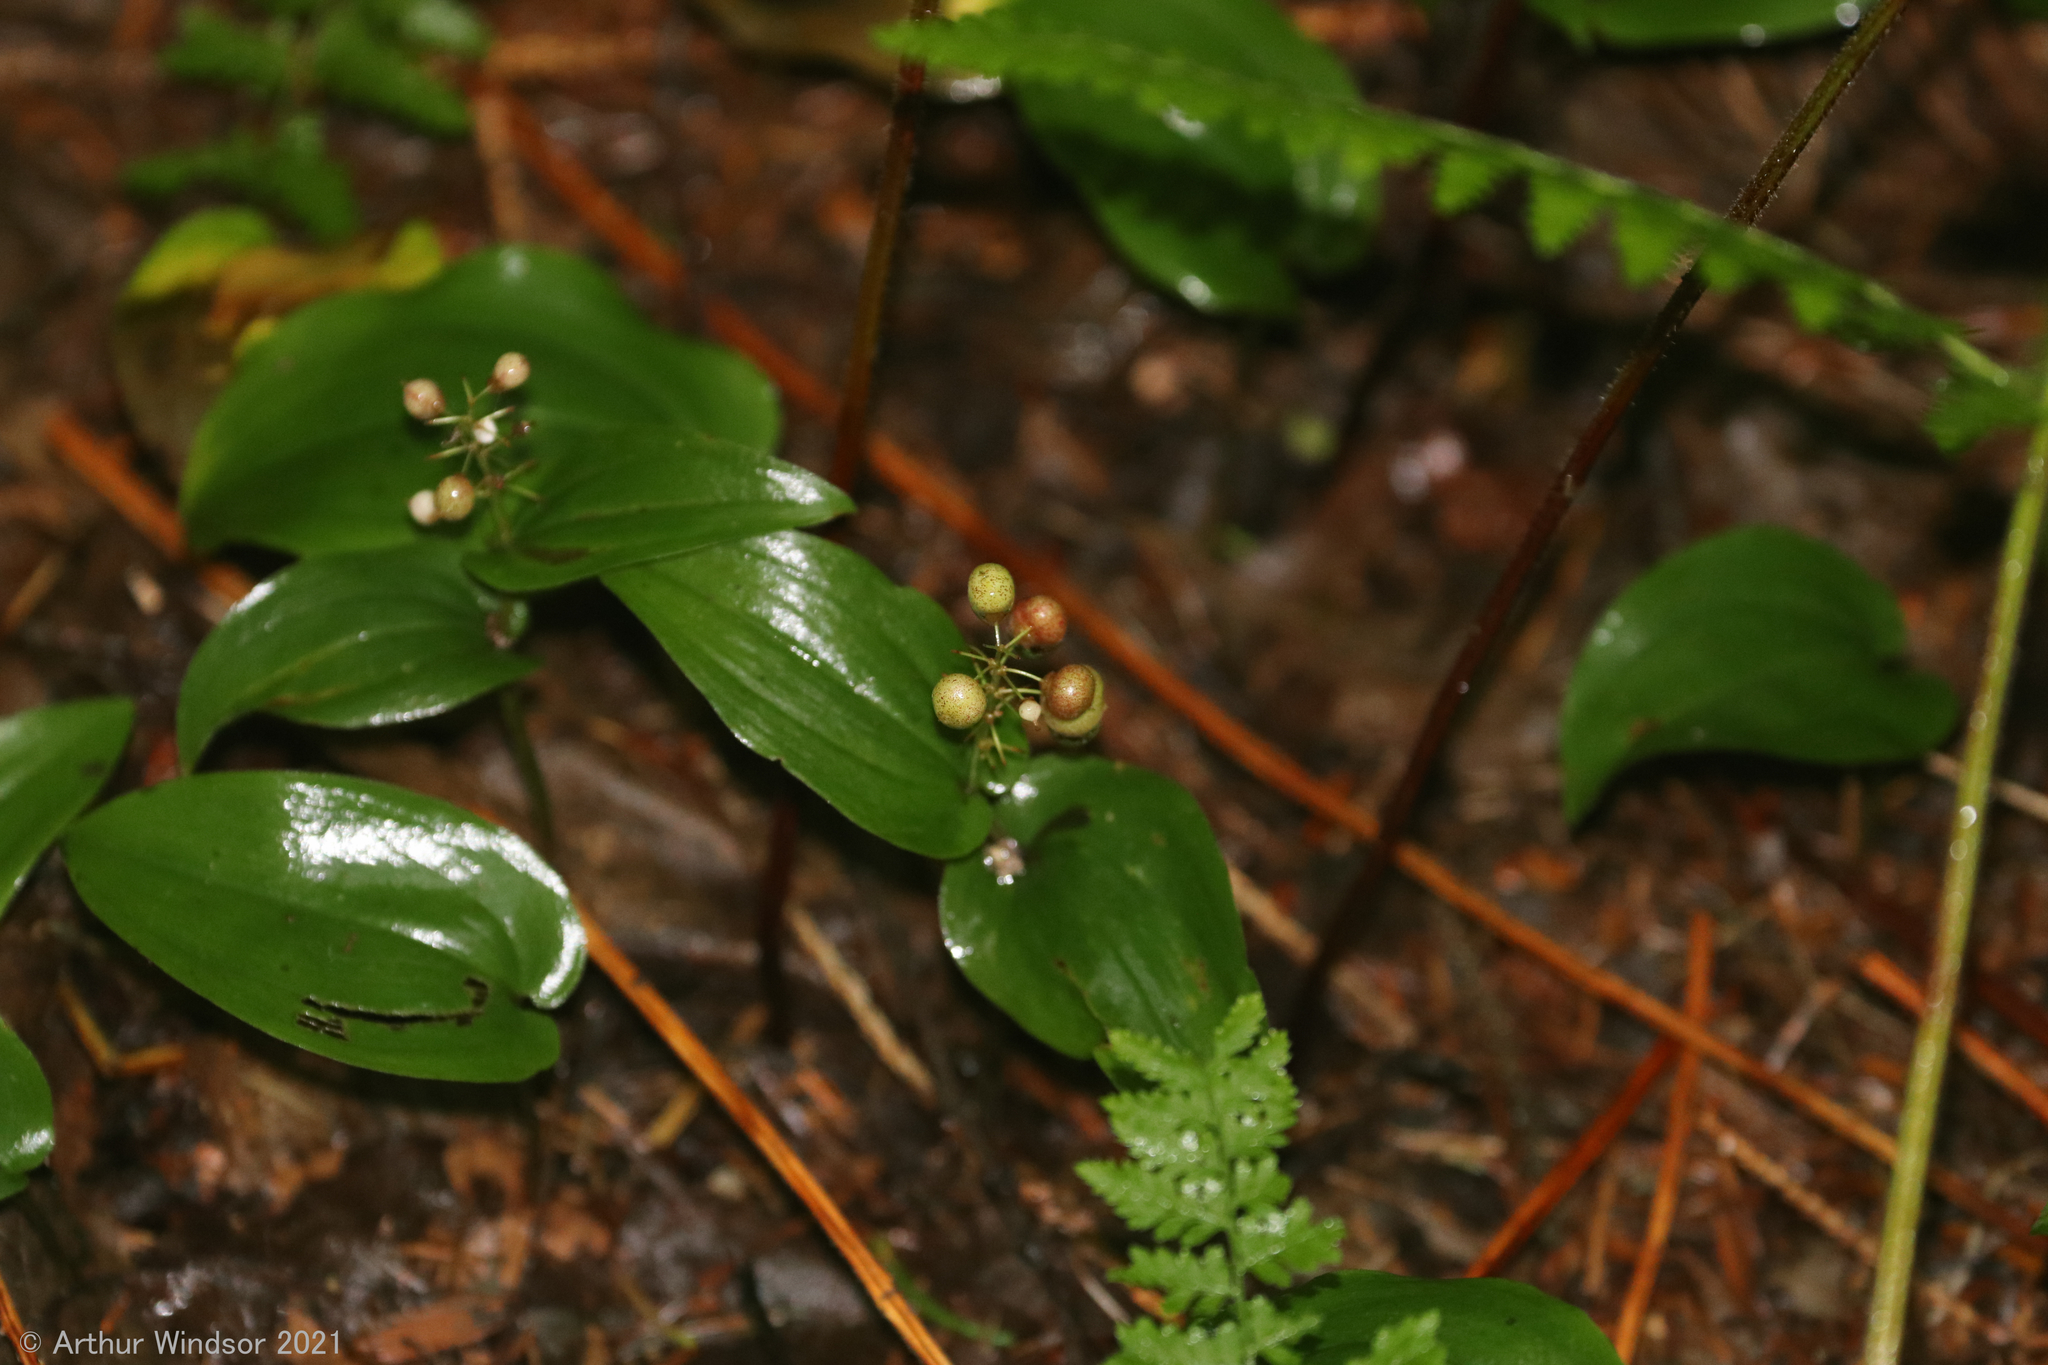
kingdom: Plantae
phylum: Tracheophyta
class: Liliopsida
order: Asparagales
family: Asparagaceae
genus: Maianthemum
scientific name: Maianthemum canadense
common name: False lily-of-the-valley
